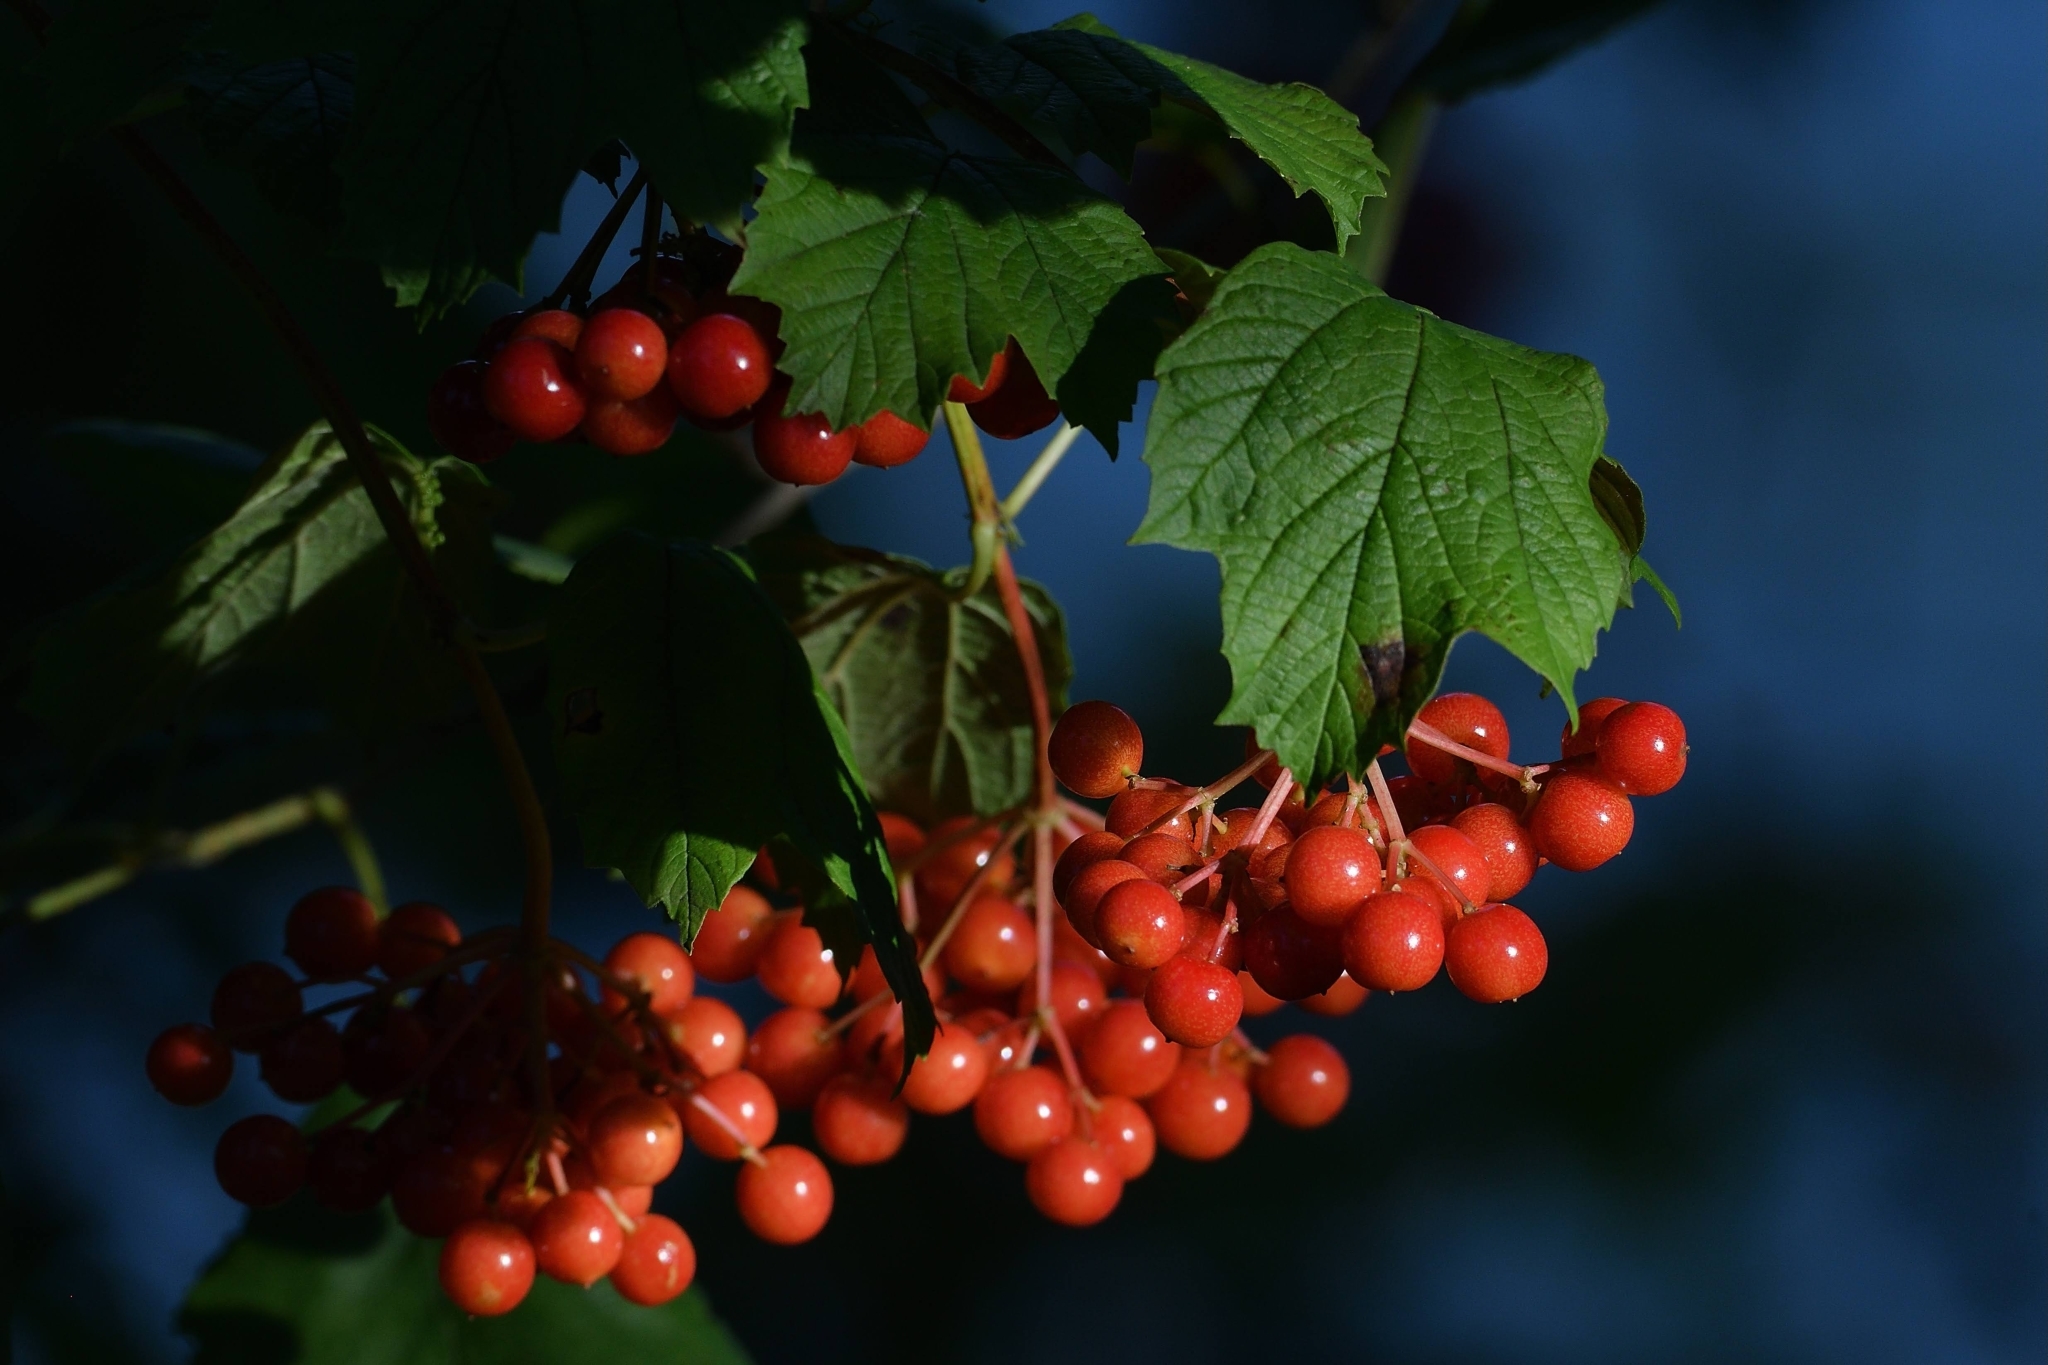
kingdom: Plantae
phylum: Tracheophyta
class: Magnoliopsida
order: Dipsacales
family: Viburnaceae
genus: Viburnum
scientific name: Viburnum opulus
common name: Guelder-rose
